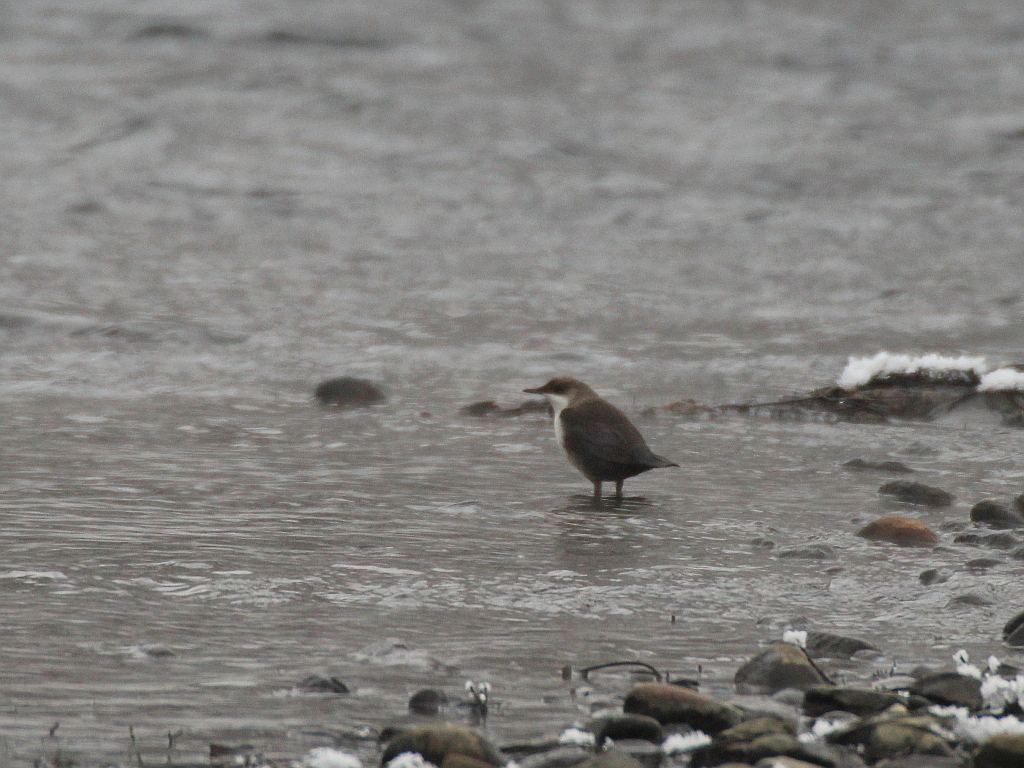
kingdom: Animalia
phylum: Chordata
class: Aves
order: Passeriformes
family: Cinclidae
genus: Cinclus
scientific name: Cinclus cinclus
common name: White-throated dipper
